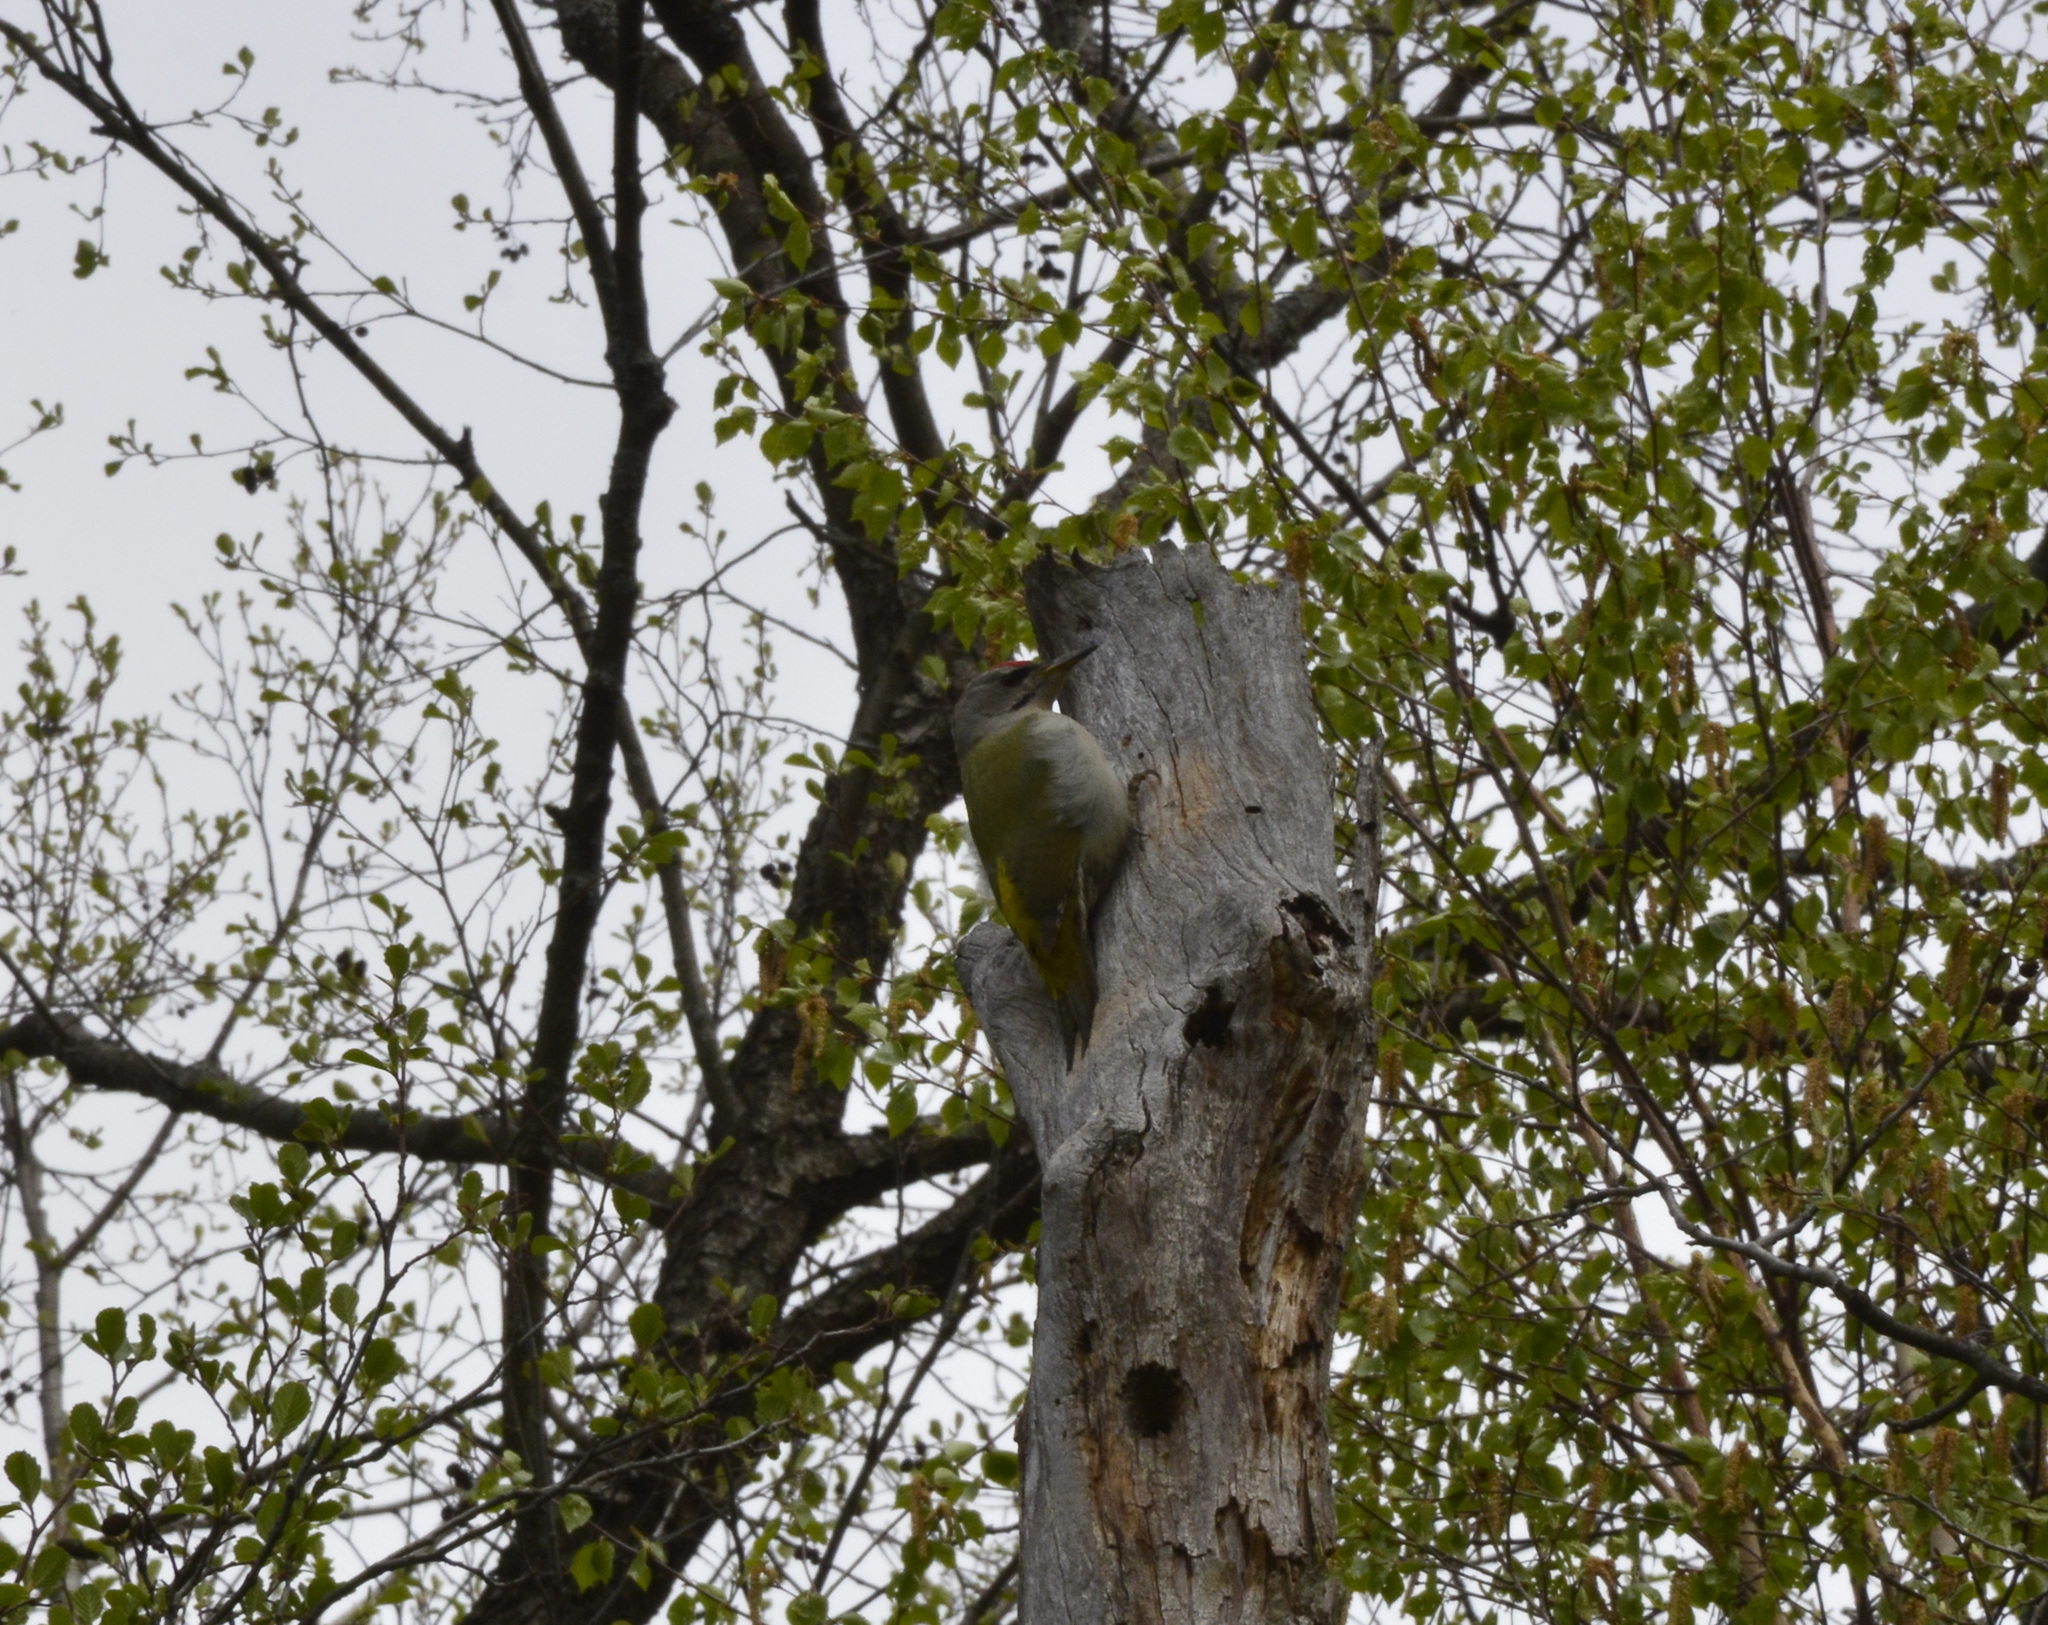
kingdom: Animalia
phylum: Chordata
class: Aves
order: Piciformes
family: Picidae
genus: Picus
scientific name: Picus canus
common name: Grey-headed woodpecker
